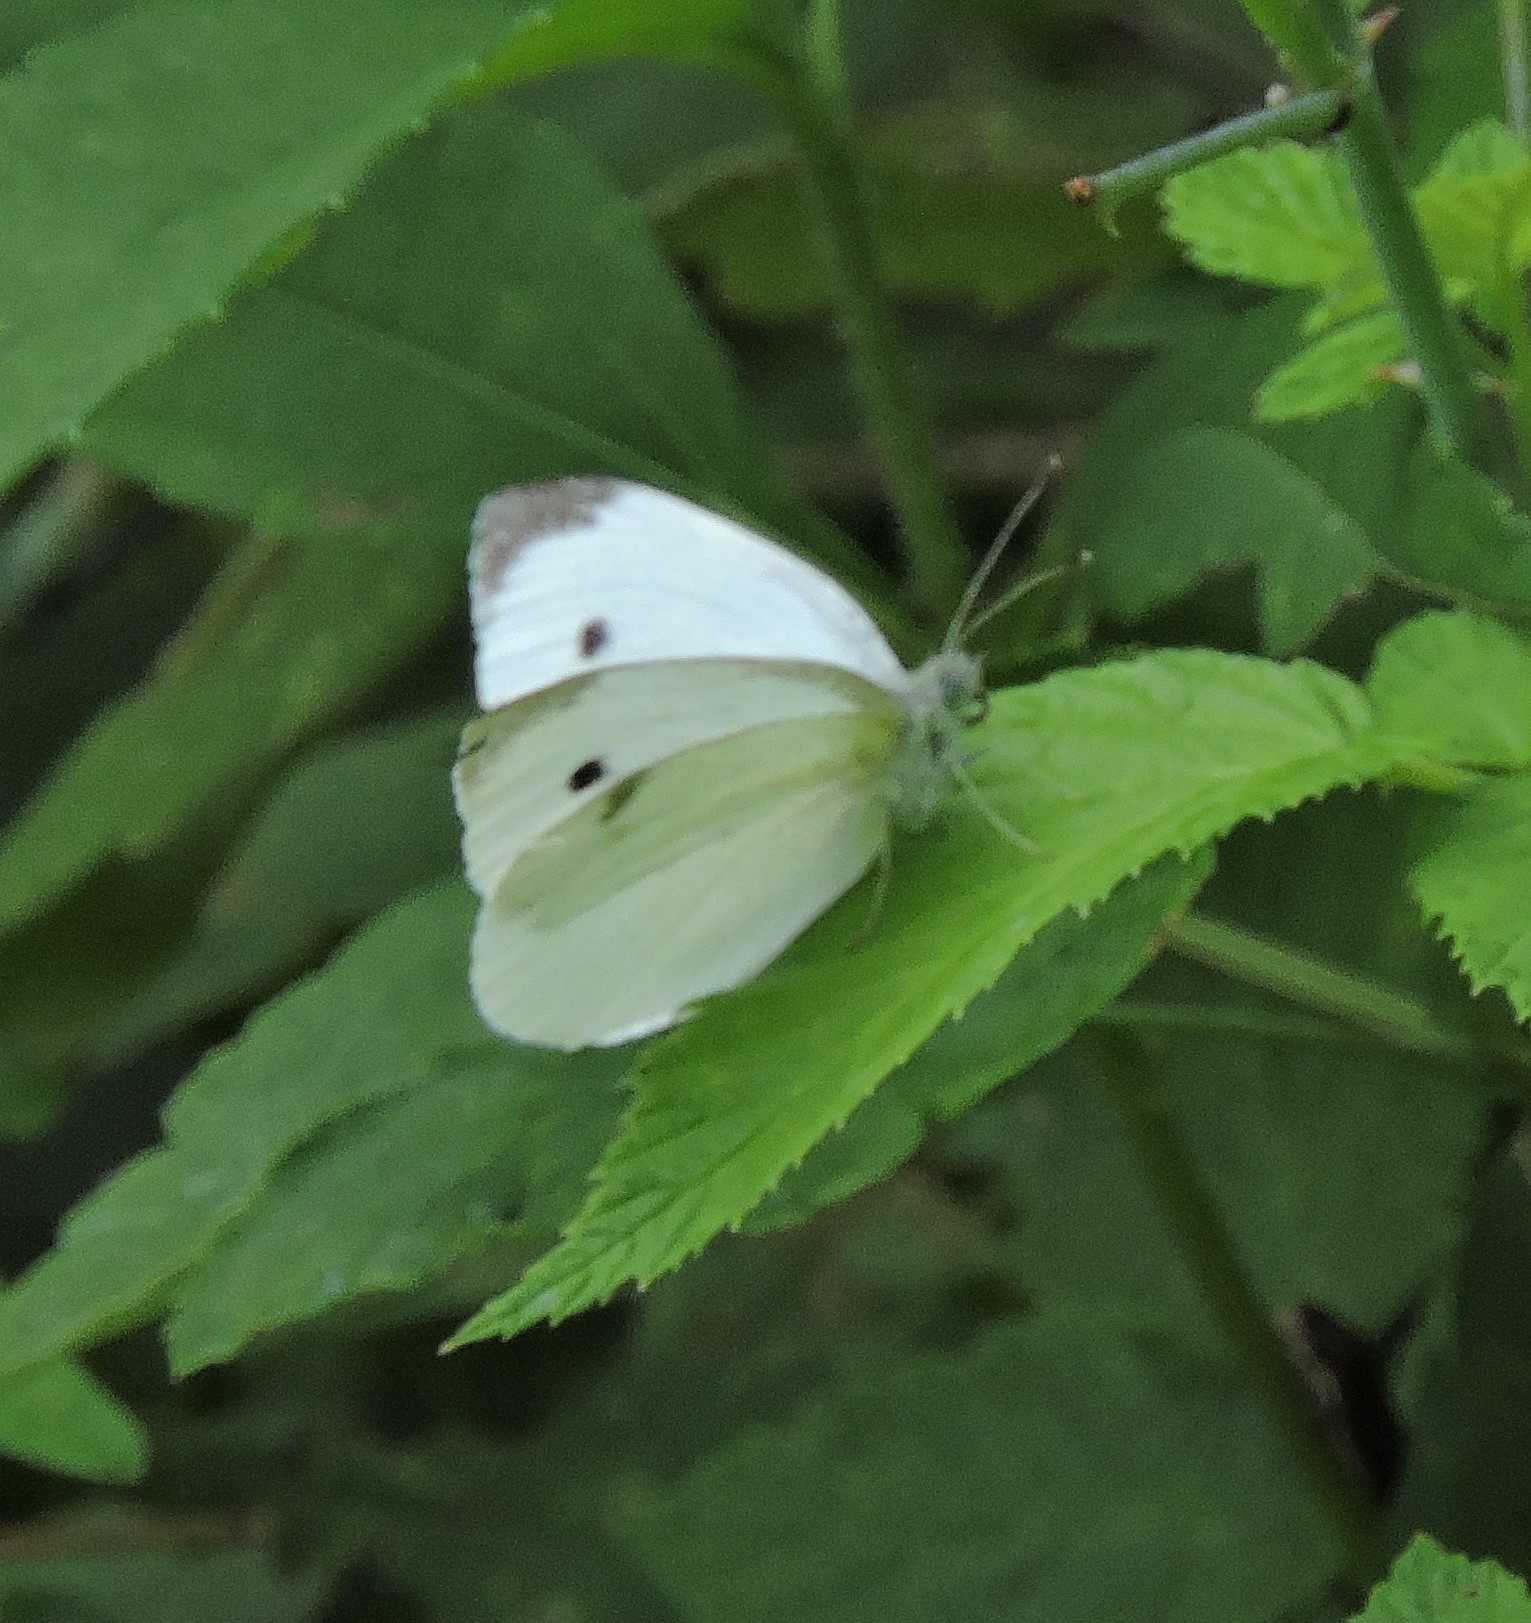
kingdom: Animalia
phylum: Arthropoda
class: Insecta
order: Lepidoptera
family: Pieridae
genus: Pieris
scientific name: Pieris rapae
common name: Small white
